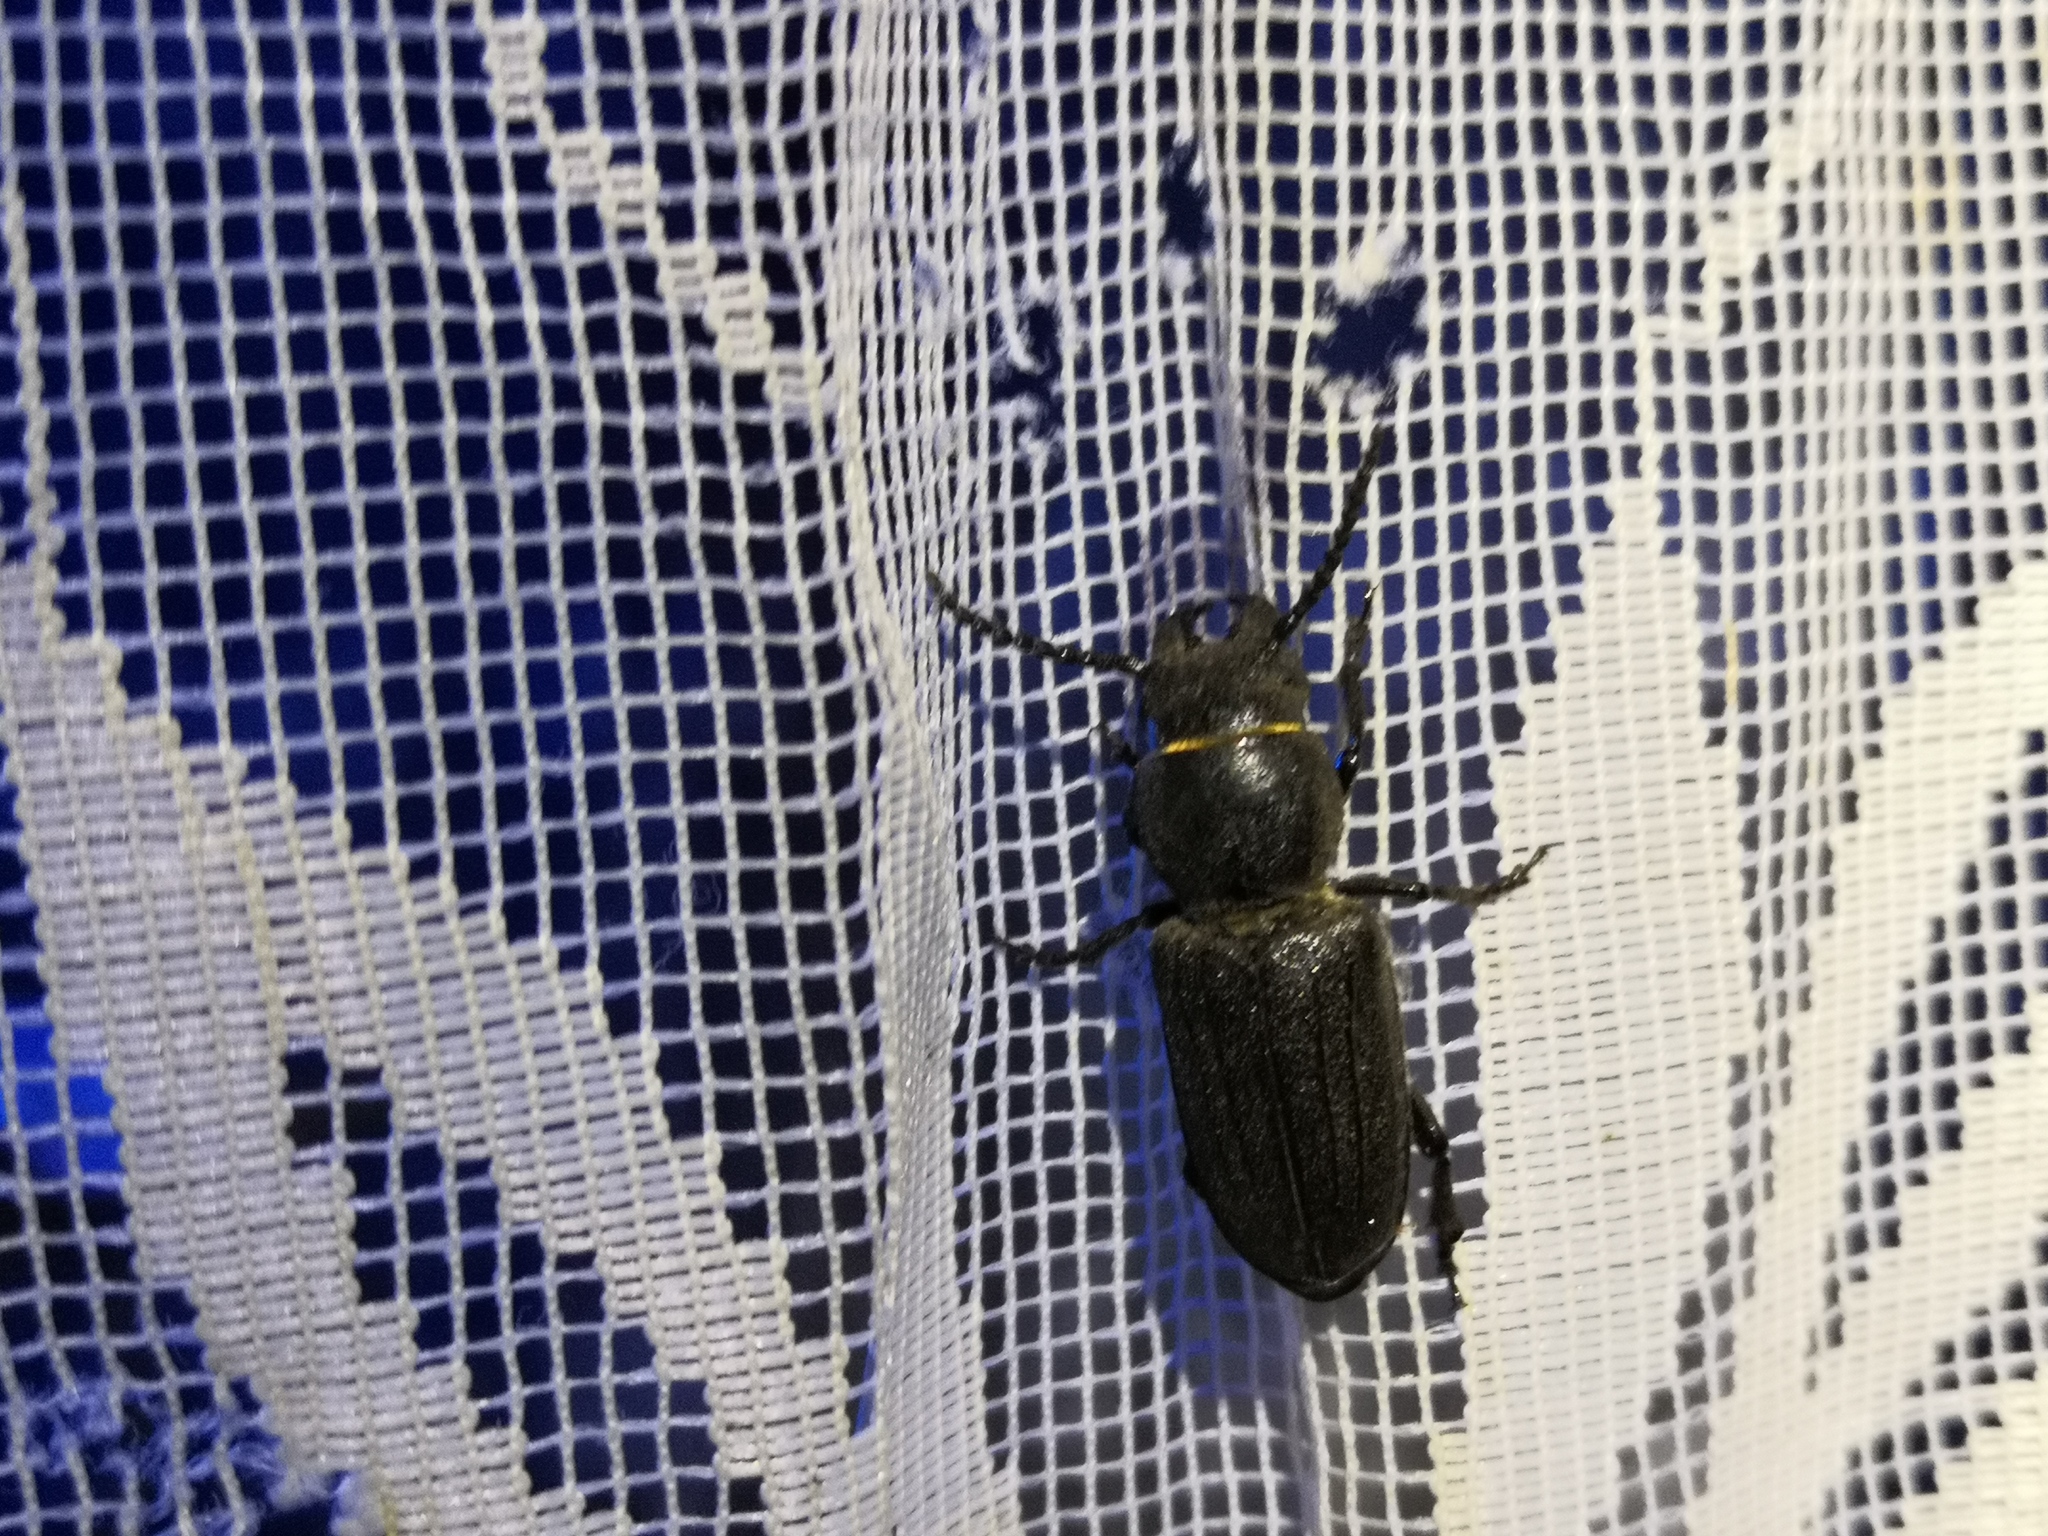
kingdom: Animalia
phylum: Arthropoda
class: Insecta
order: Coleoptera
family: Cerambycidae
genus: Spondylis
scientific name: Spondylis buprestoides
